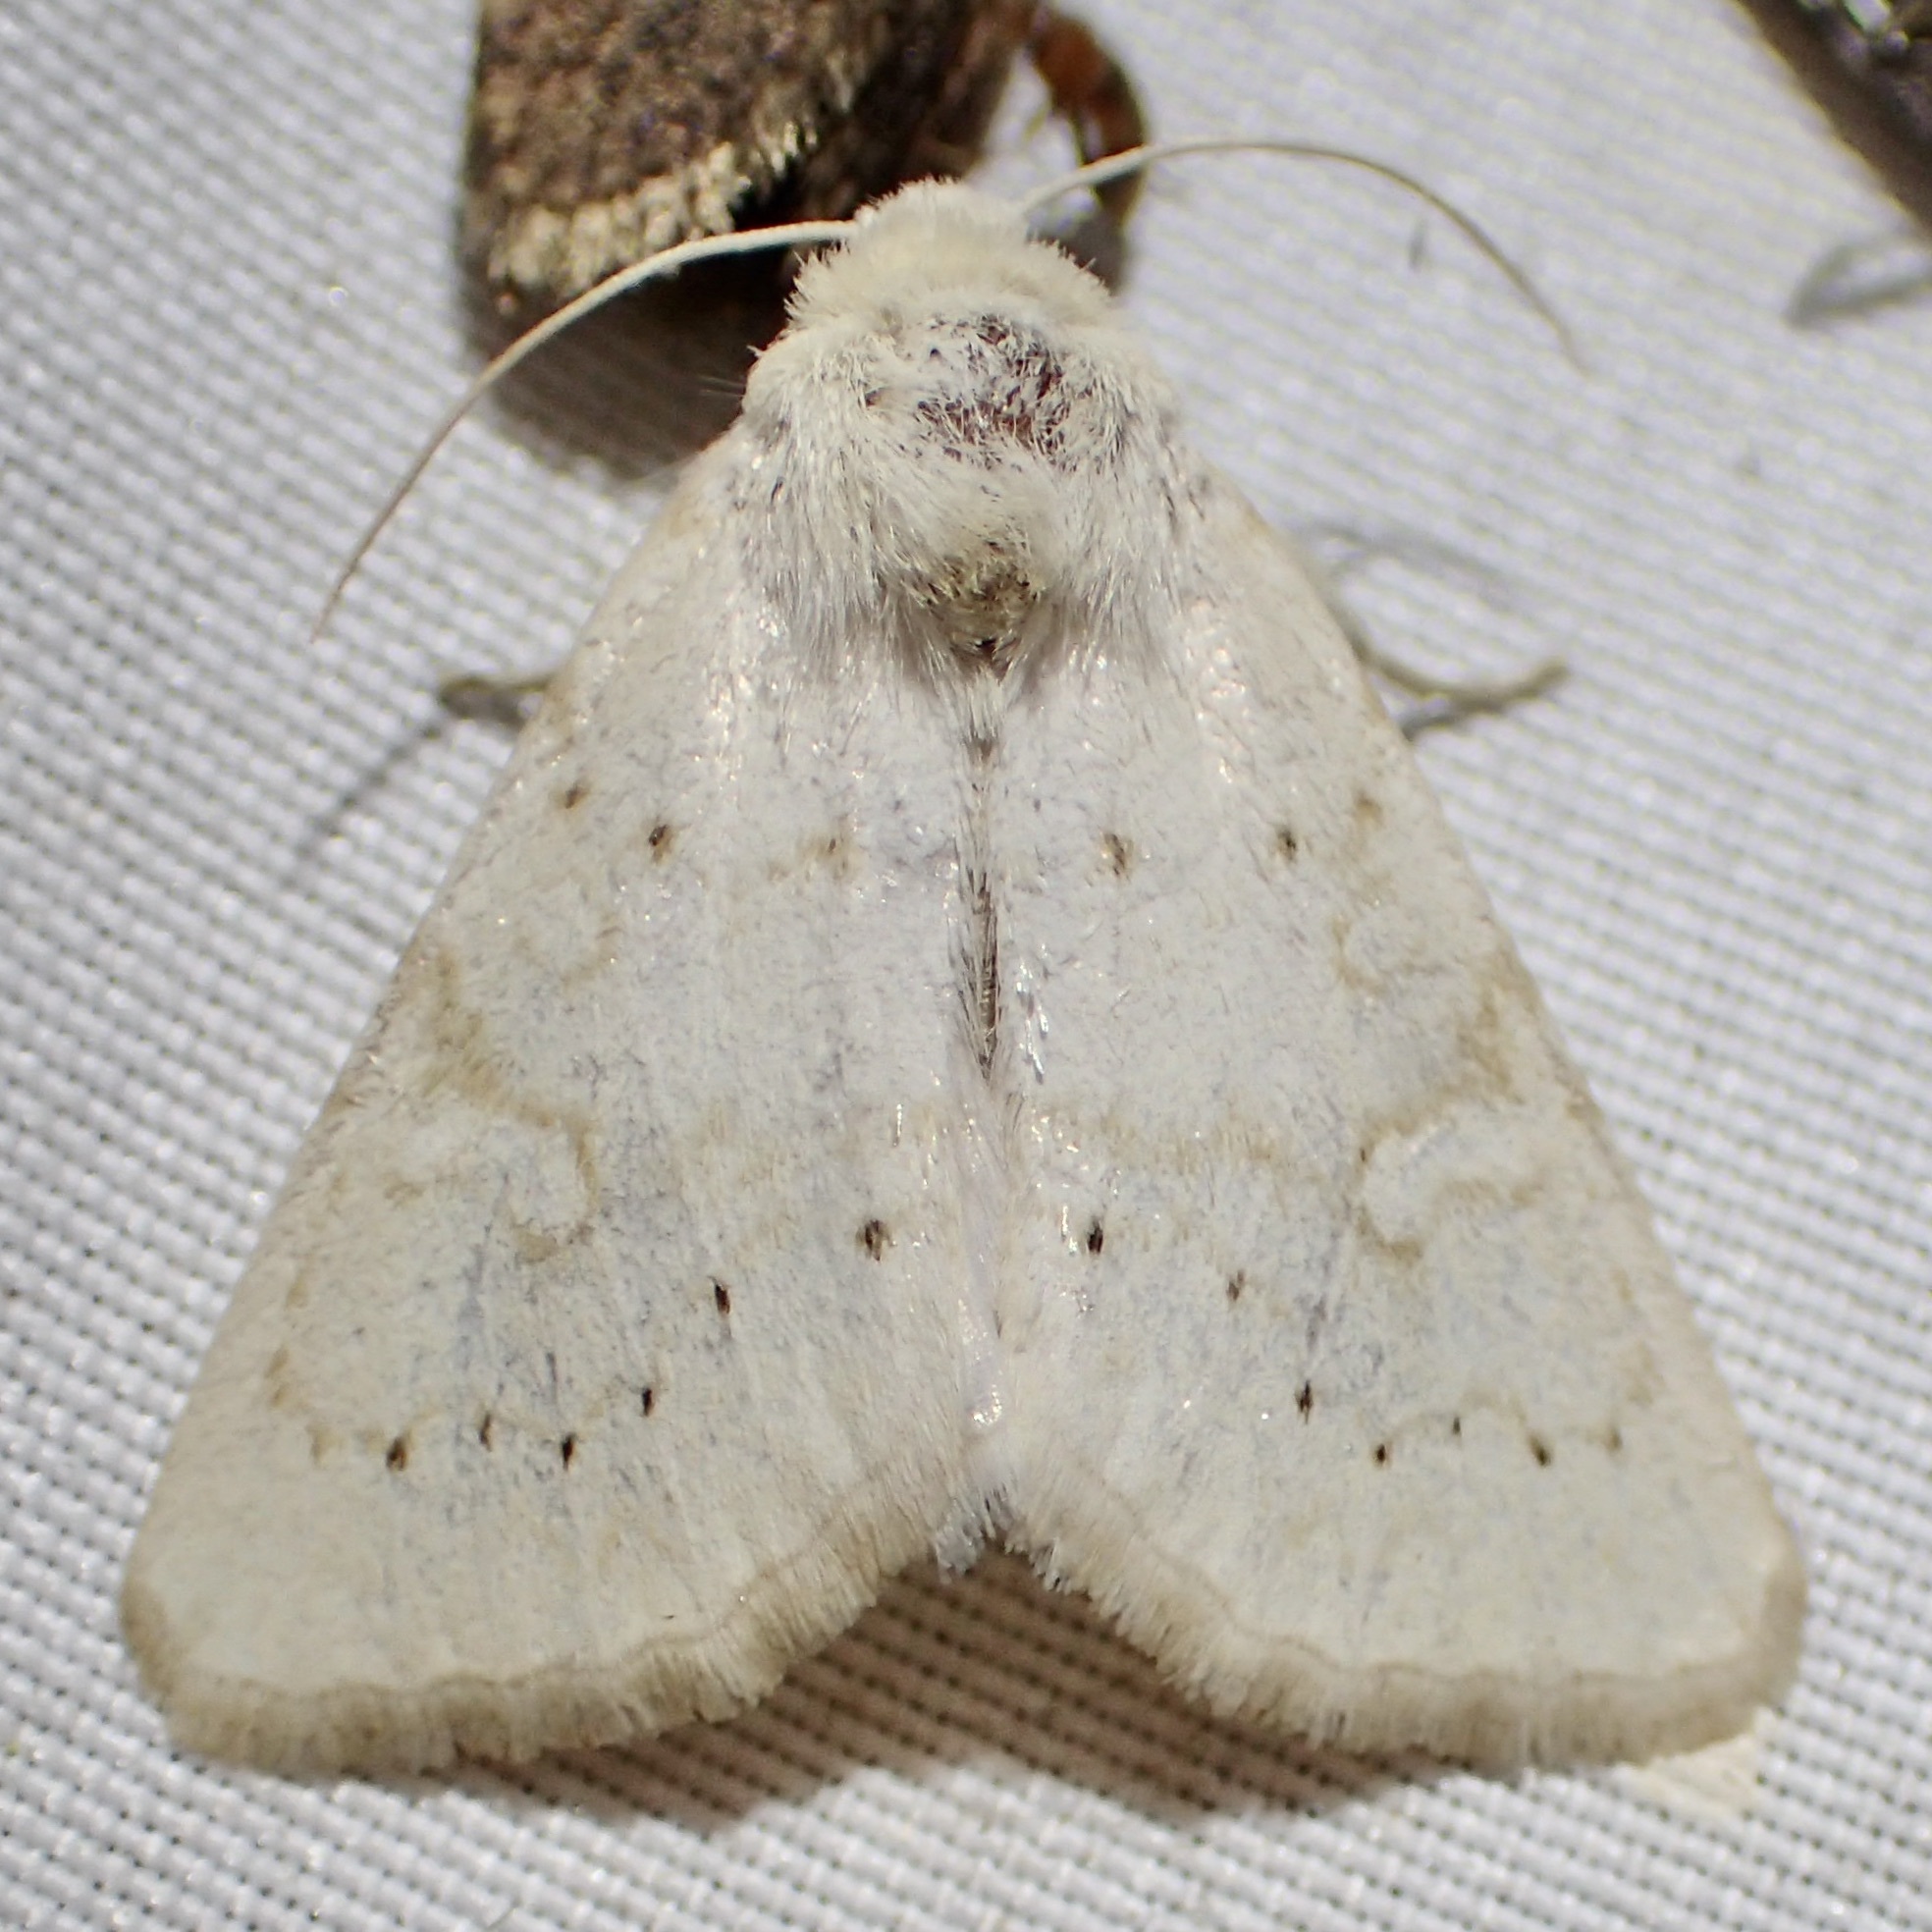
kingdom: Animalia
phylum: Arthropoda
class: Insecta
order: Lepidoptera
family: Noctuidae
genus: Oslaria
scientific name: Oslaria pura
